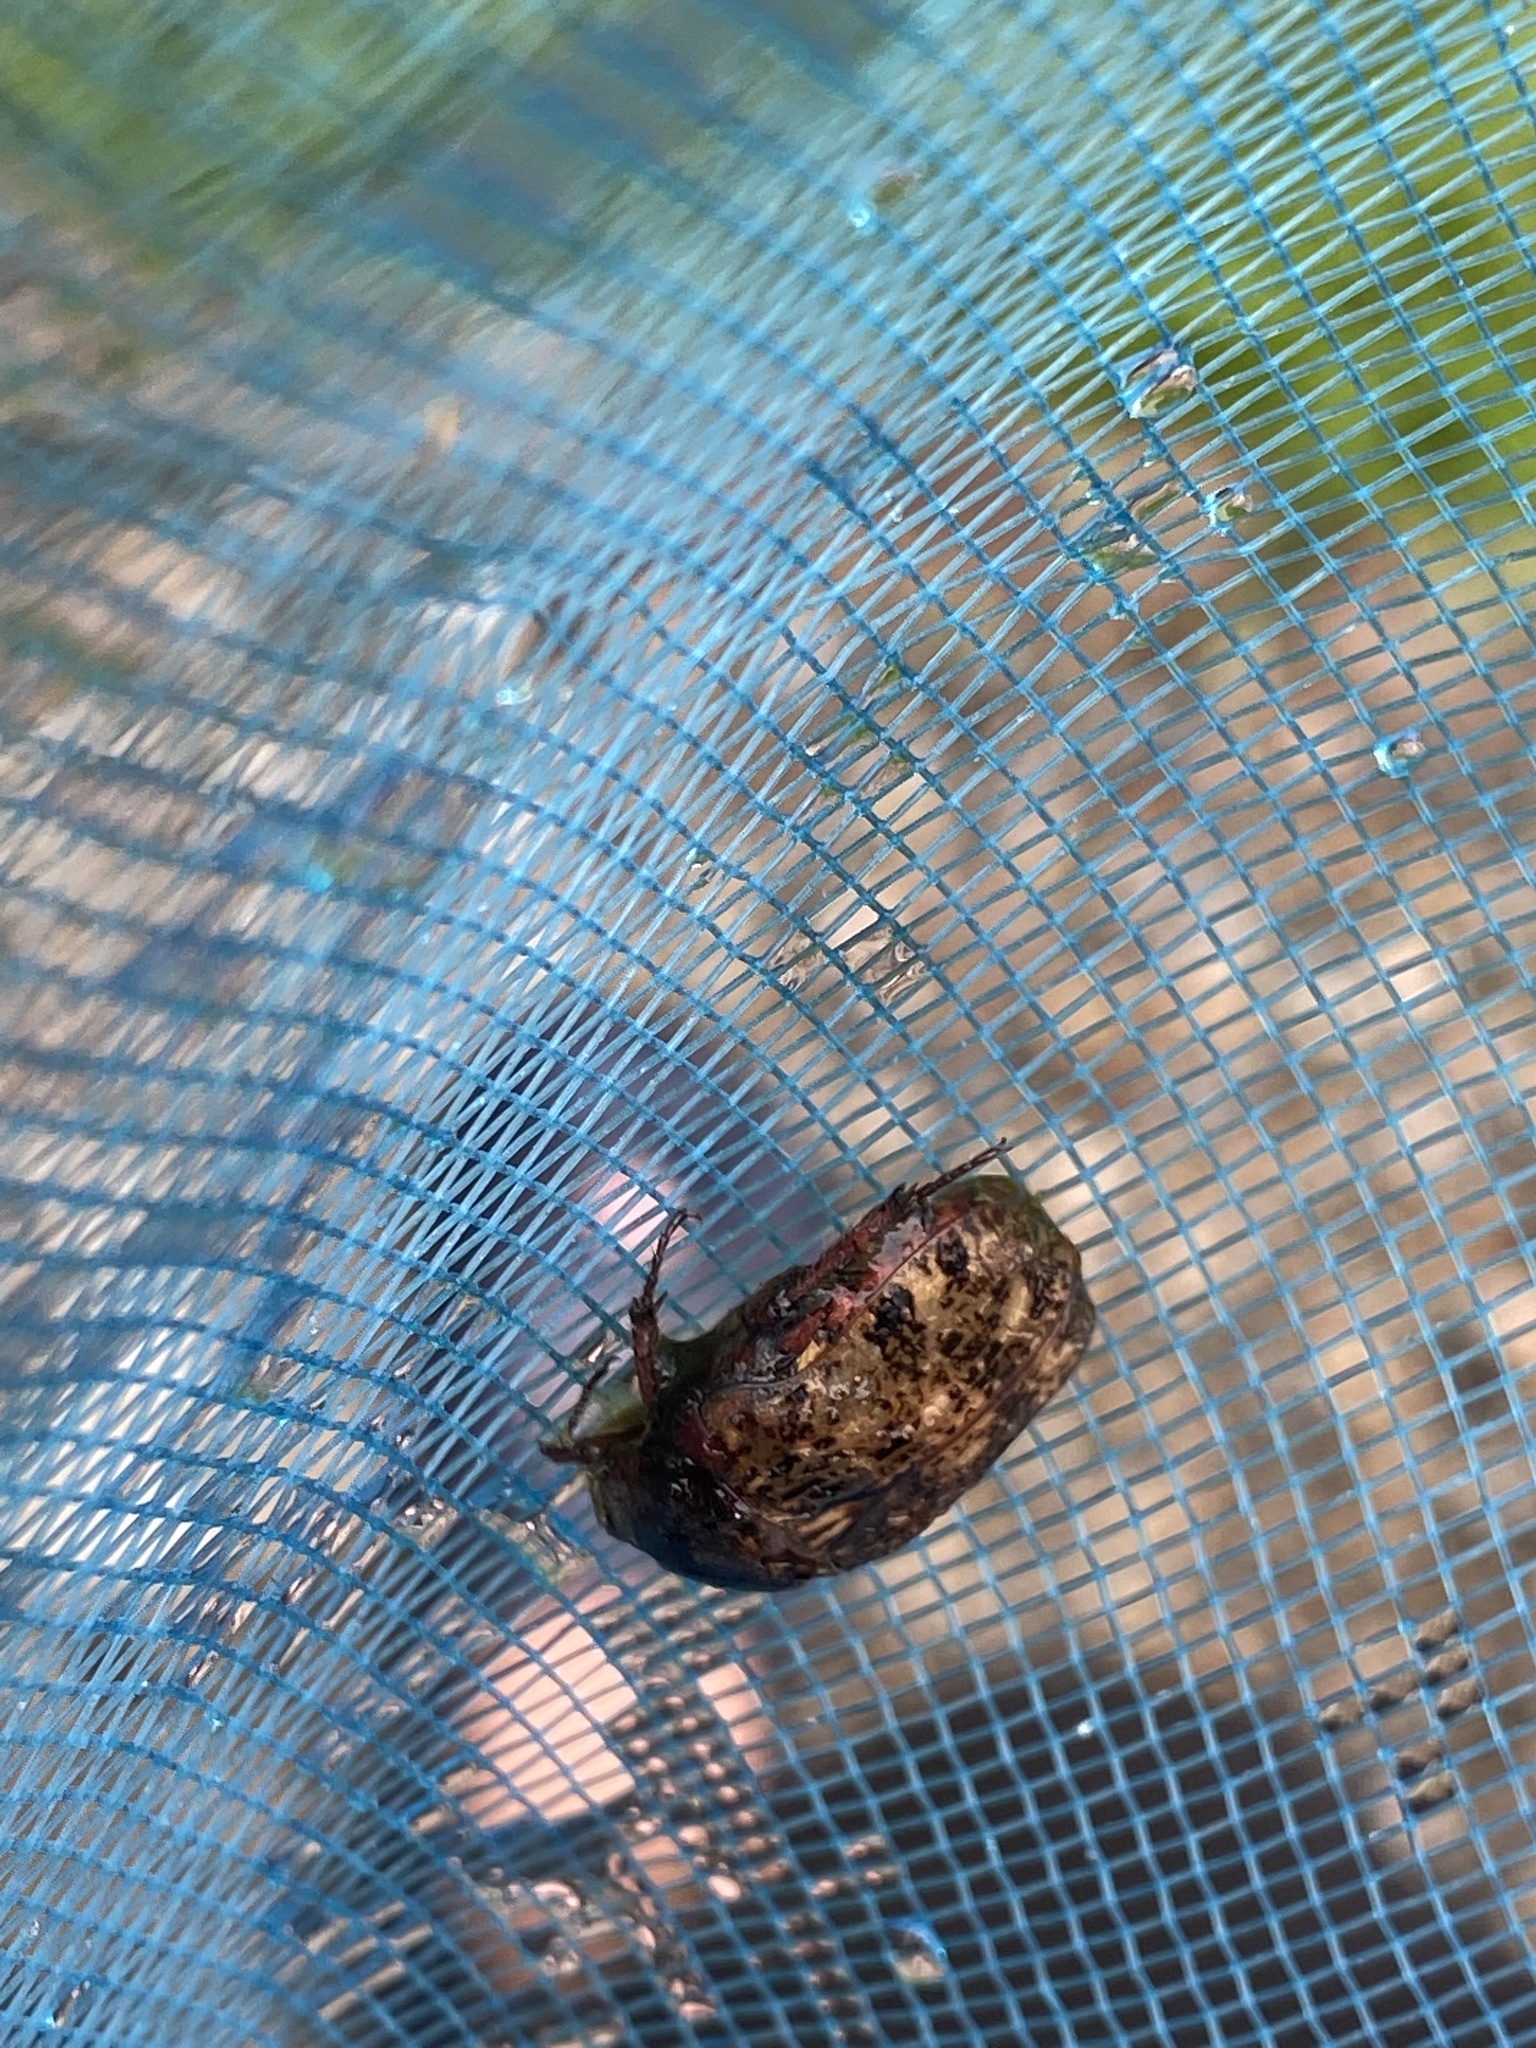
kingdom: Animalia
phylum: Arthropoda
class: Insecta
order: Coleoptera
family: Scarabaeidae
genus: Euphoria
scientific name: Euphoria inda
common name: Bumble flower beetle
